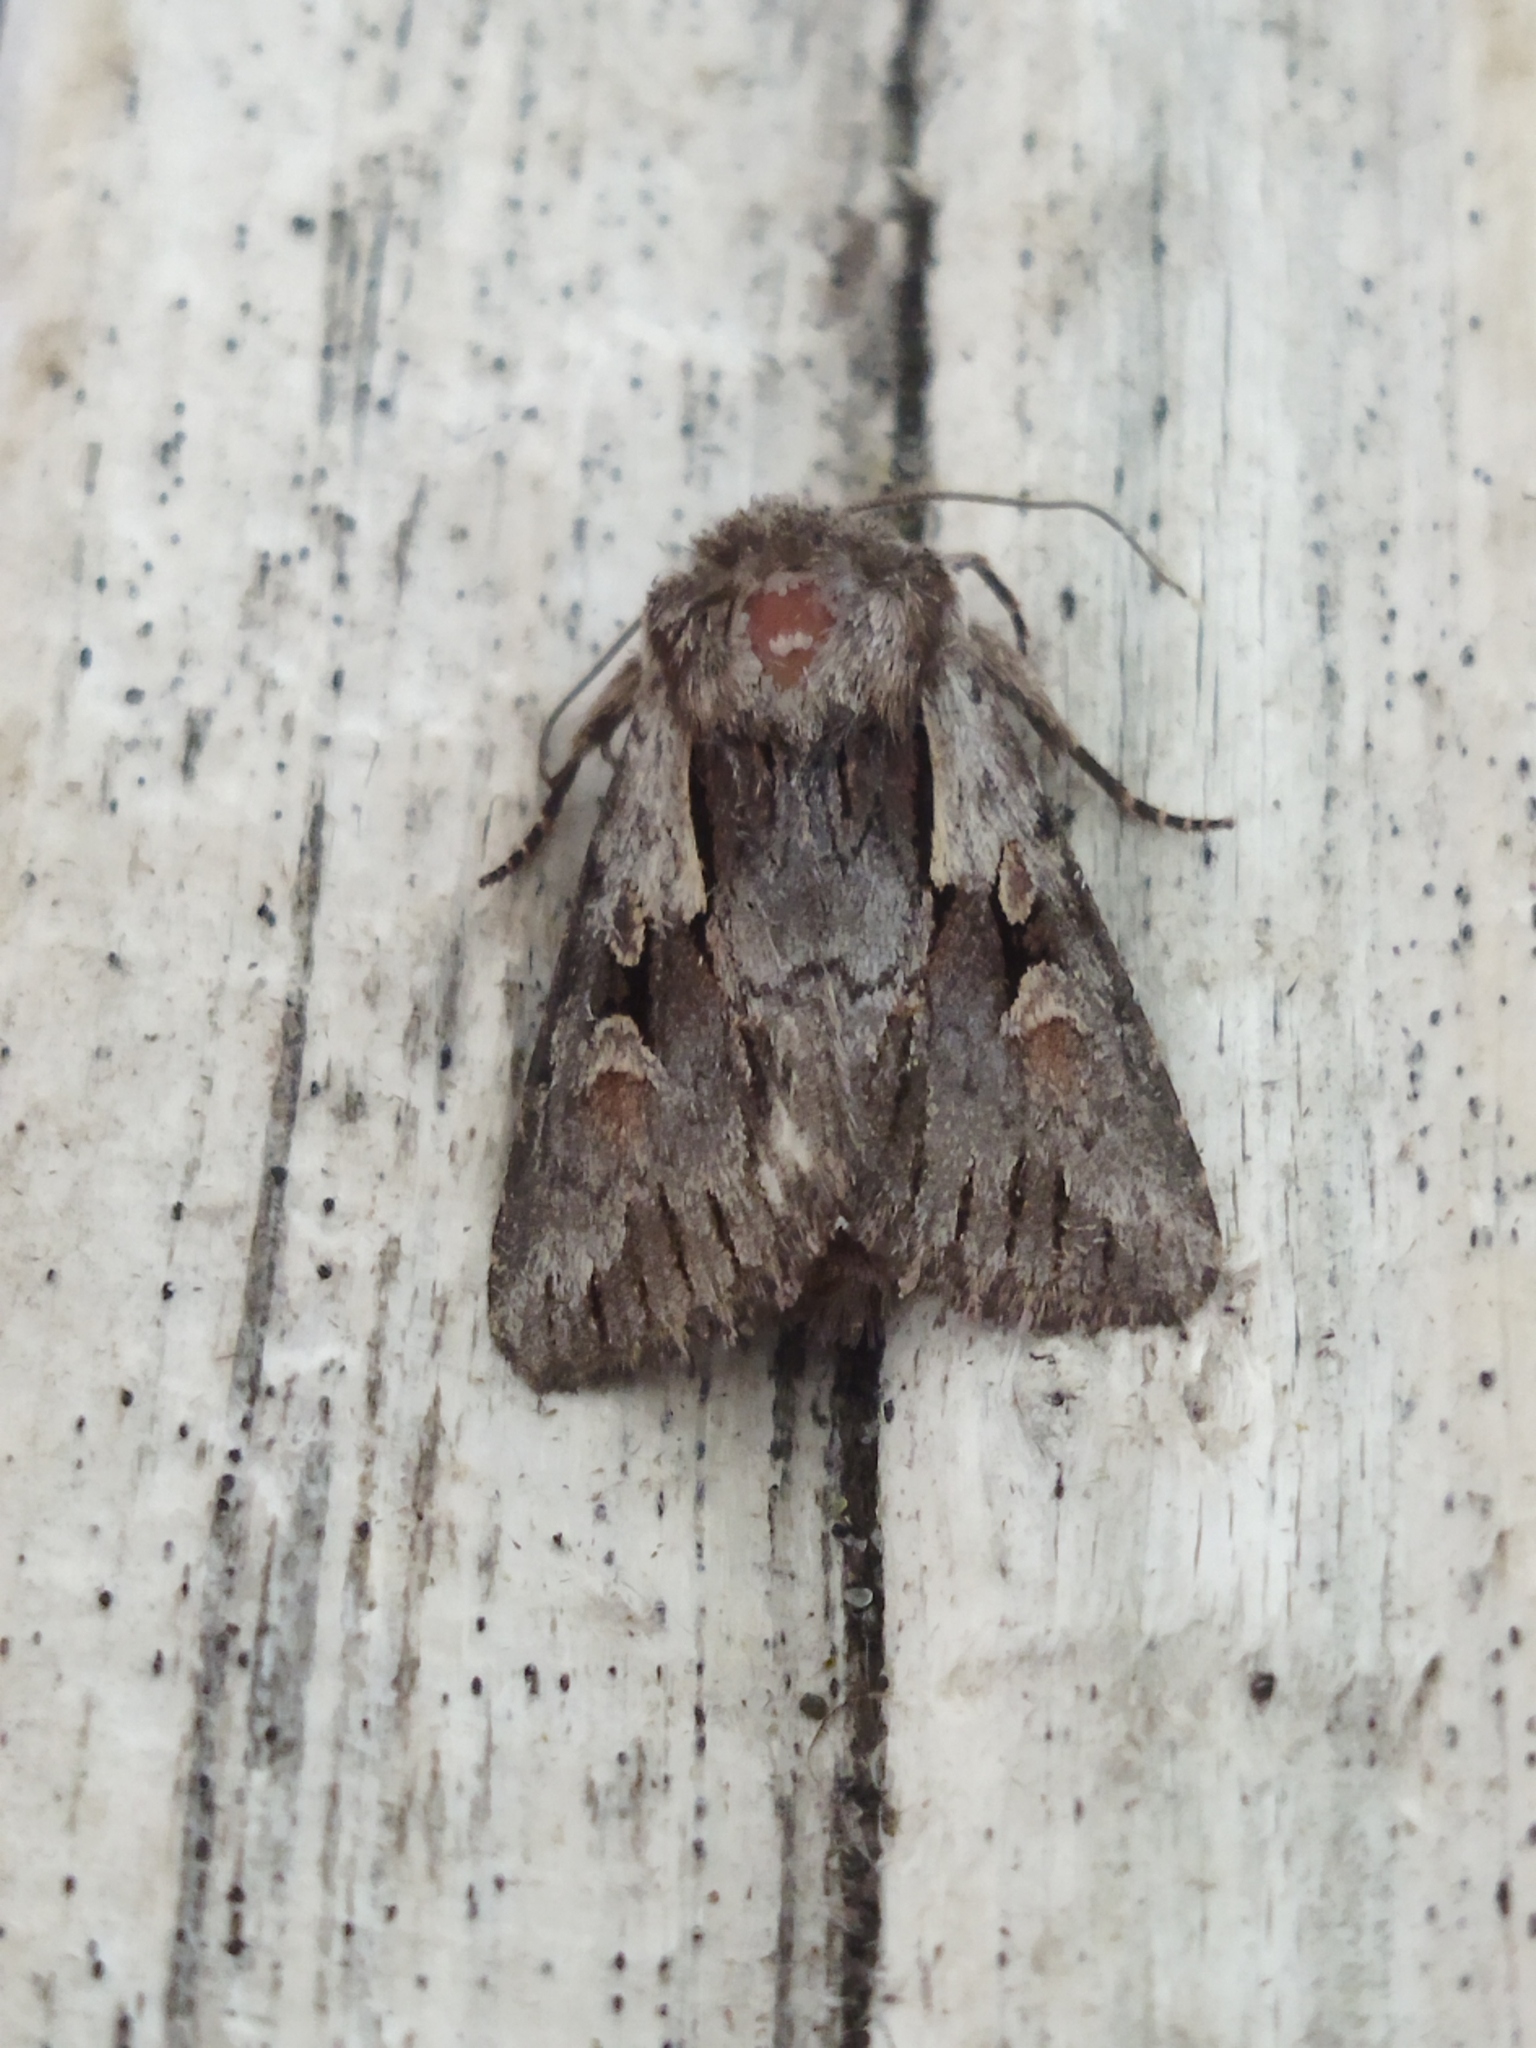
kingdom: Animalia
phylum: Arthropoda
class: Insecta
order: Lepidoptera
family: Noctuidae
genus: Chloantha
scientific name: Chloantha hyperici
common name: Pale-shouldered cloud
